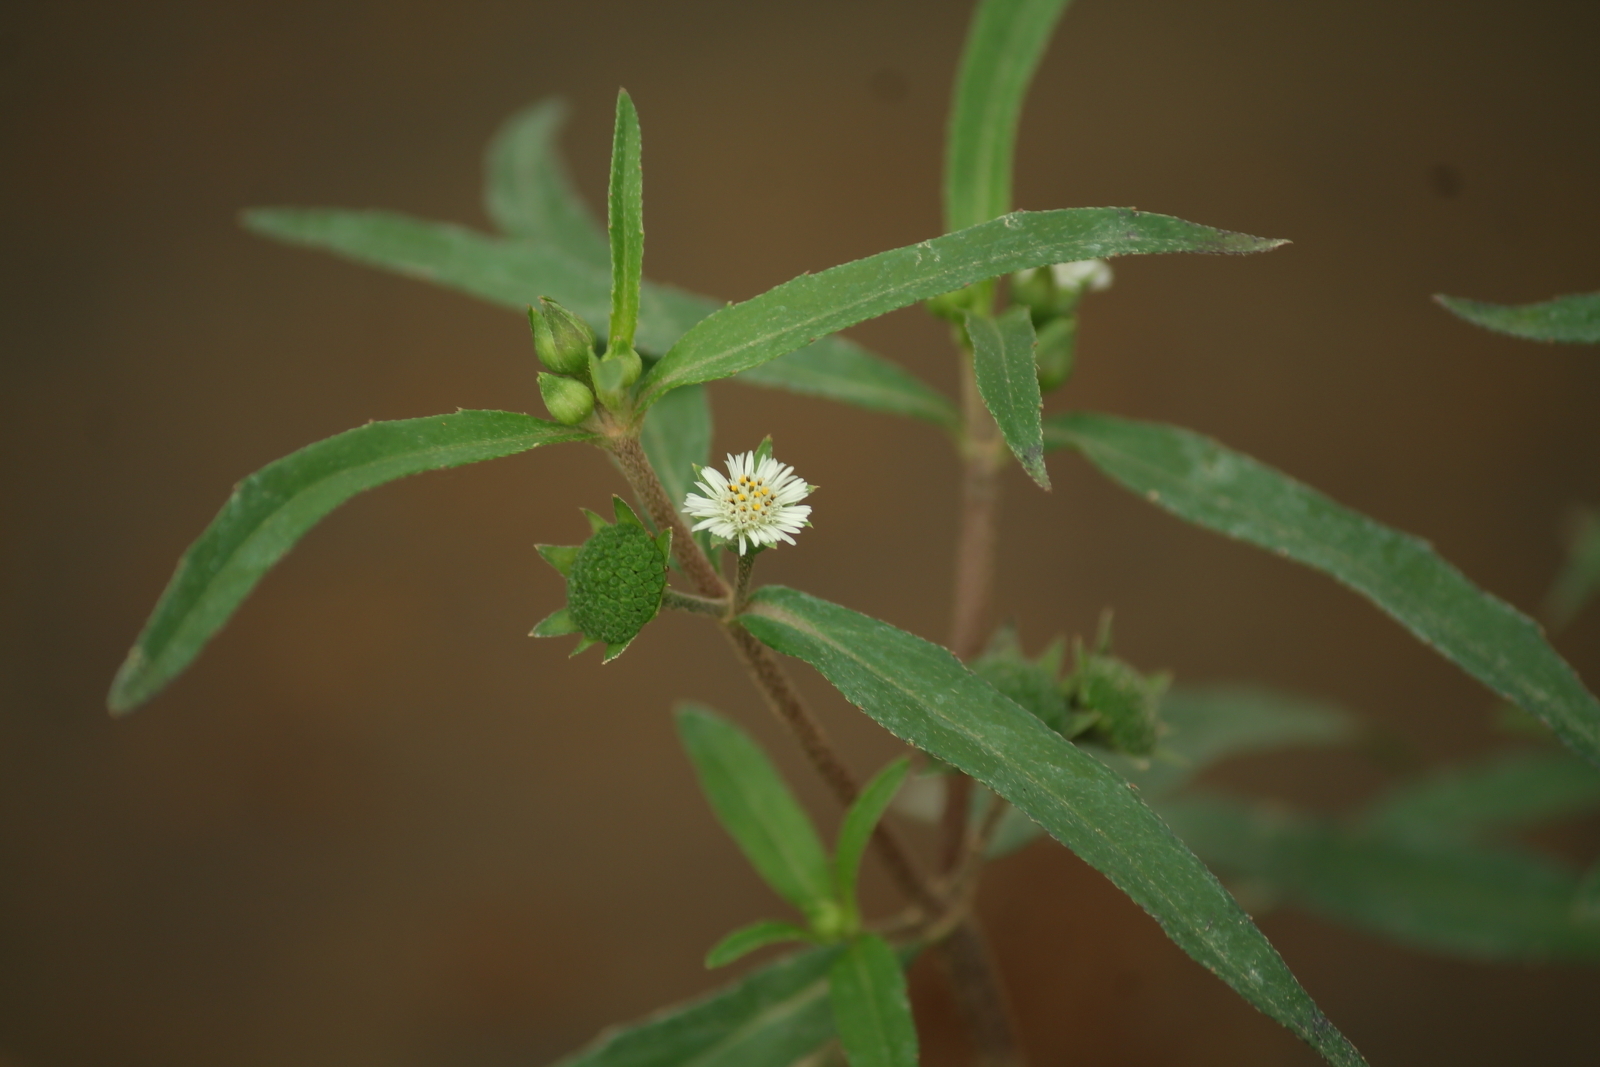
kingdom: Plantae
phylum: Tracheophyta
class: Magnoliopsida
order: Asterales
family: Asteraceae
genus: Eclipta
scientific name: Eclipta prostrata
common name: False daisy
